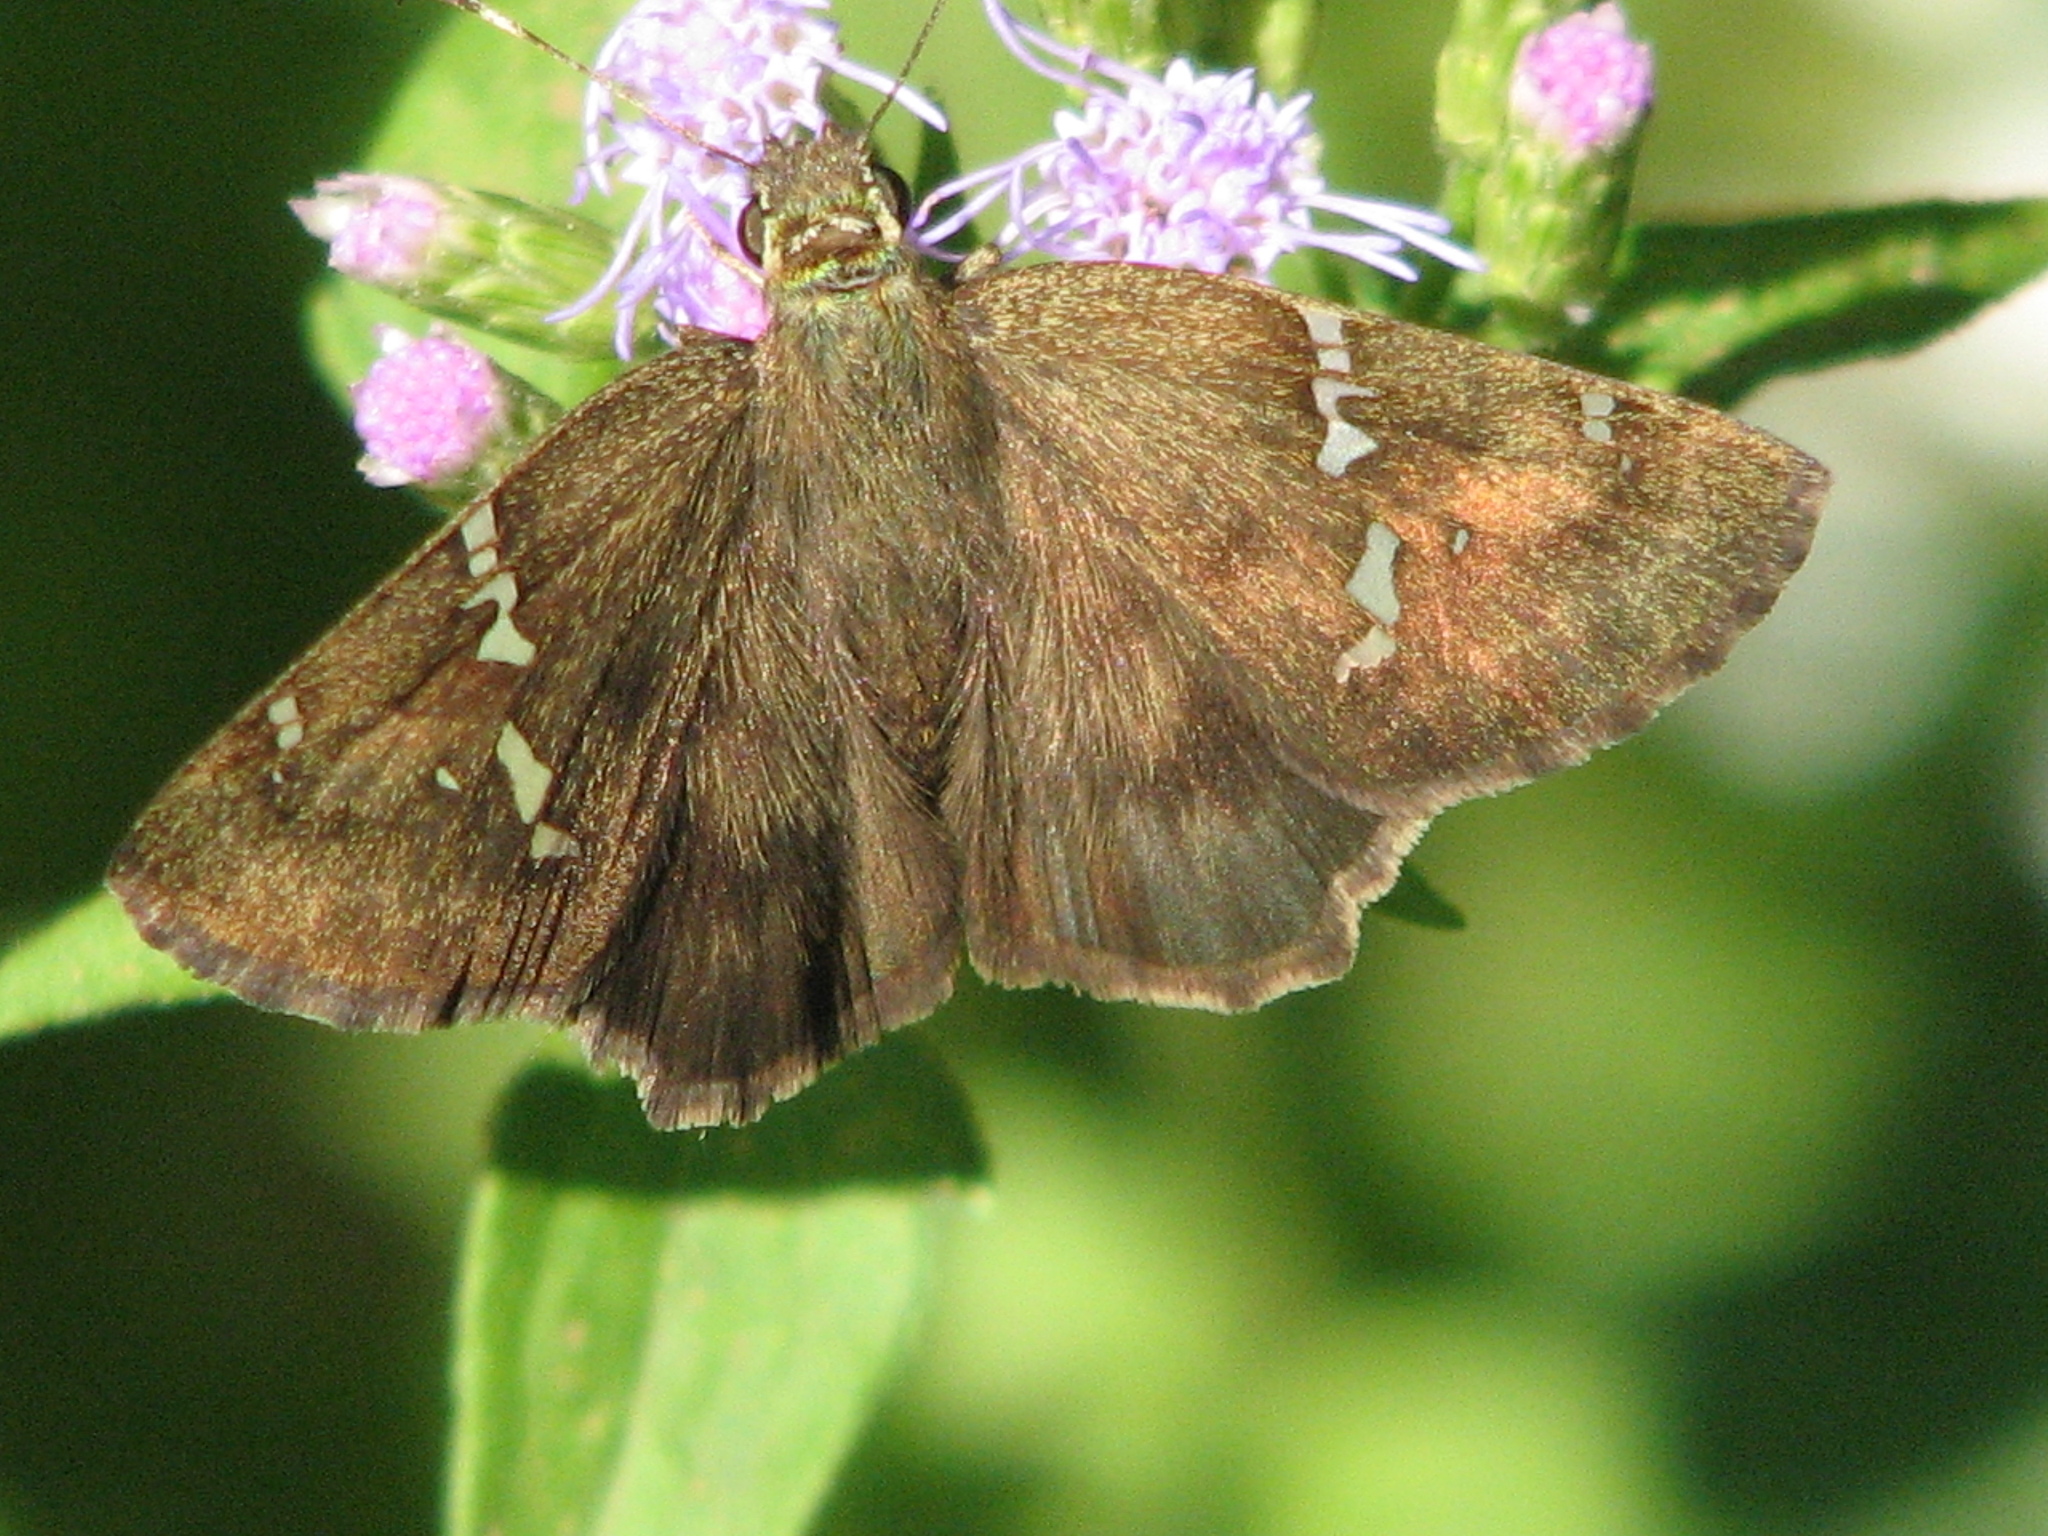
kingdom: Animalia
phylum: Arthropoda
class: Insecta
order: Lepidoptera
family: Hesperiidae
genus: Autochton
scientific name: Autochton potrillo
